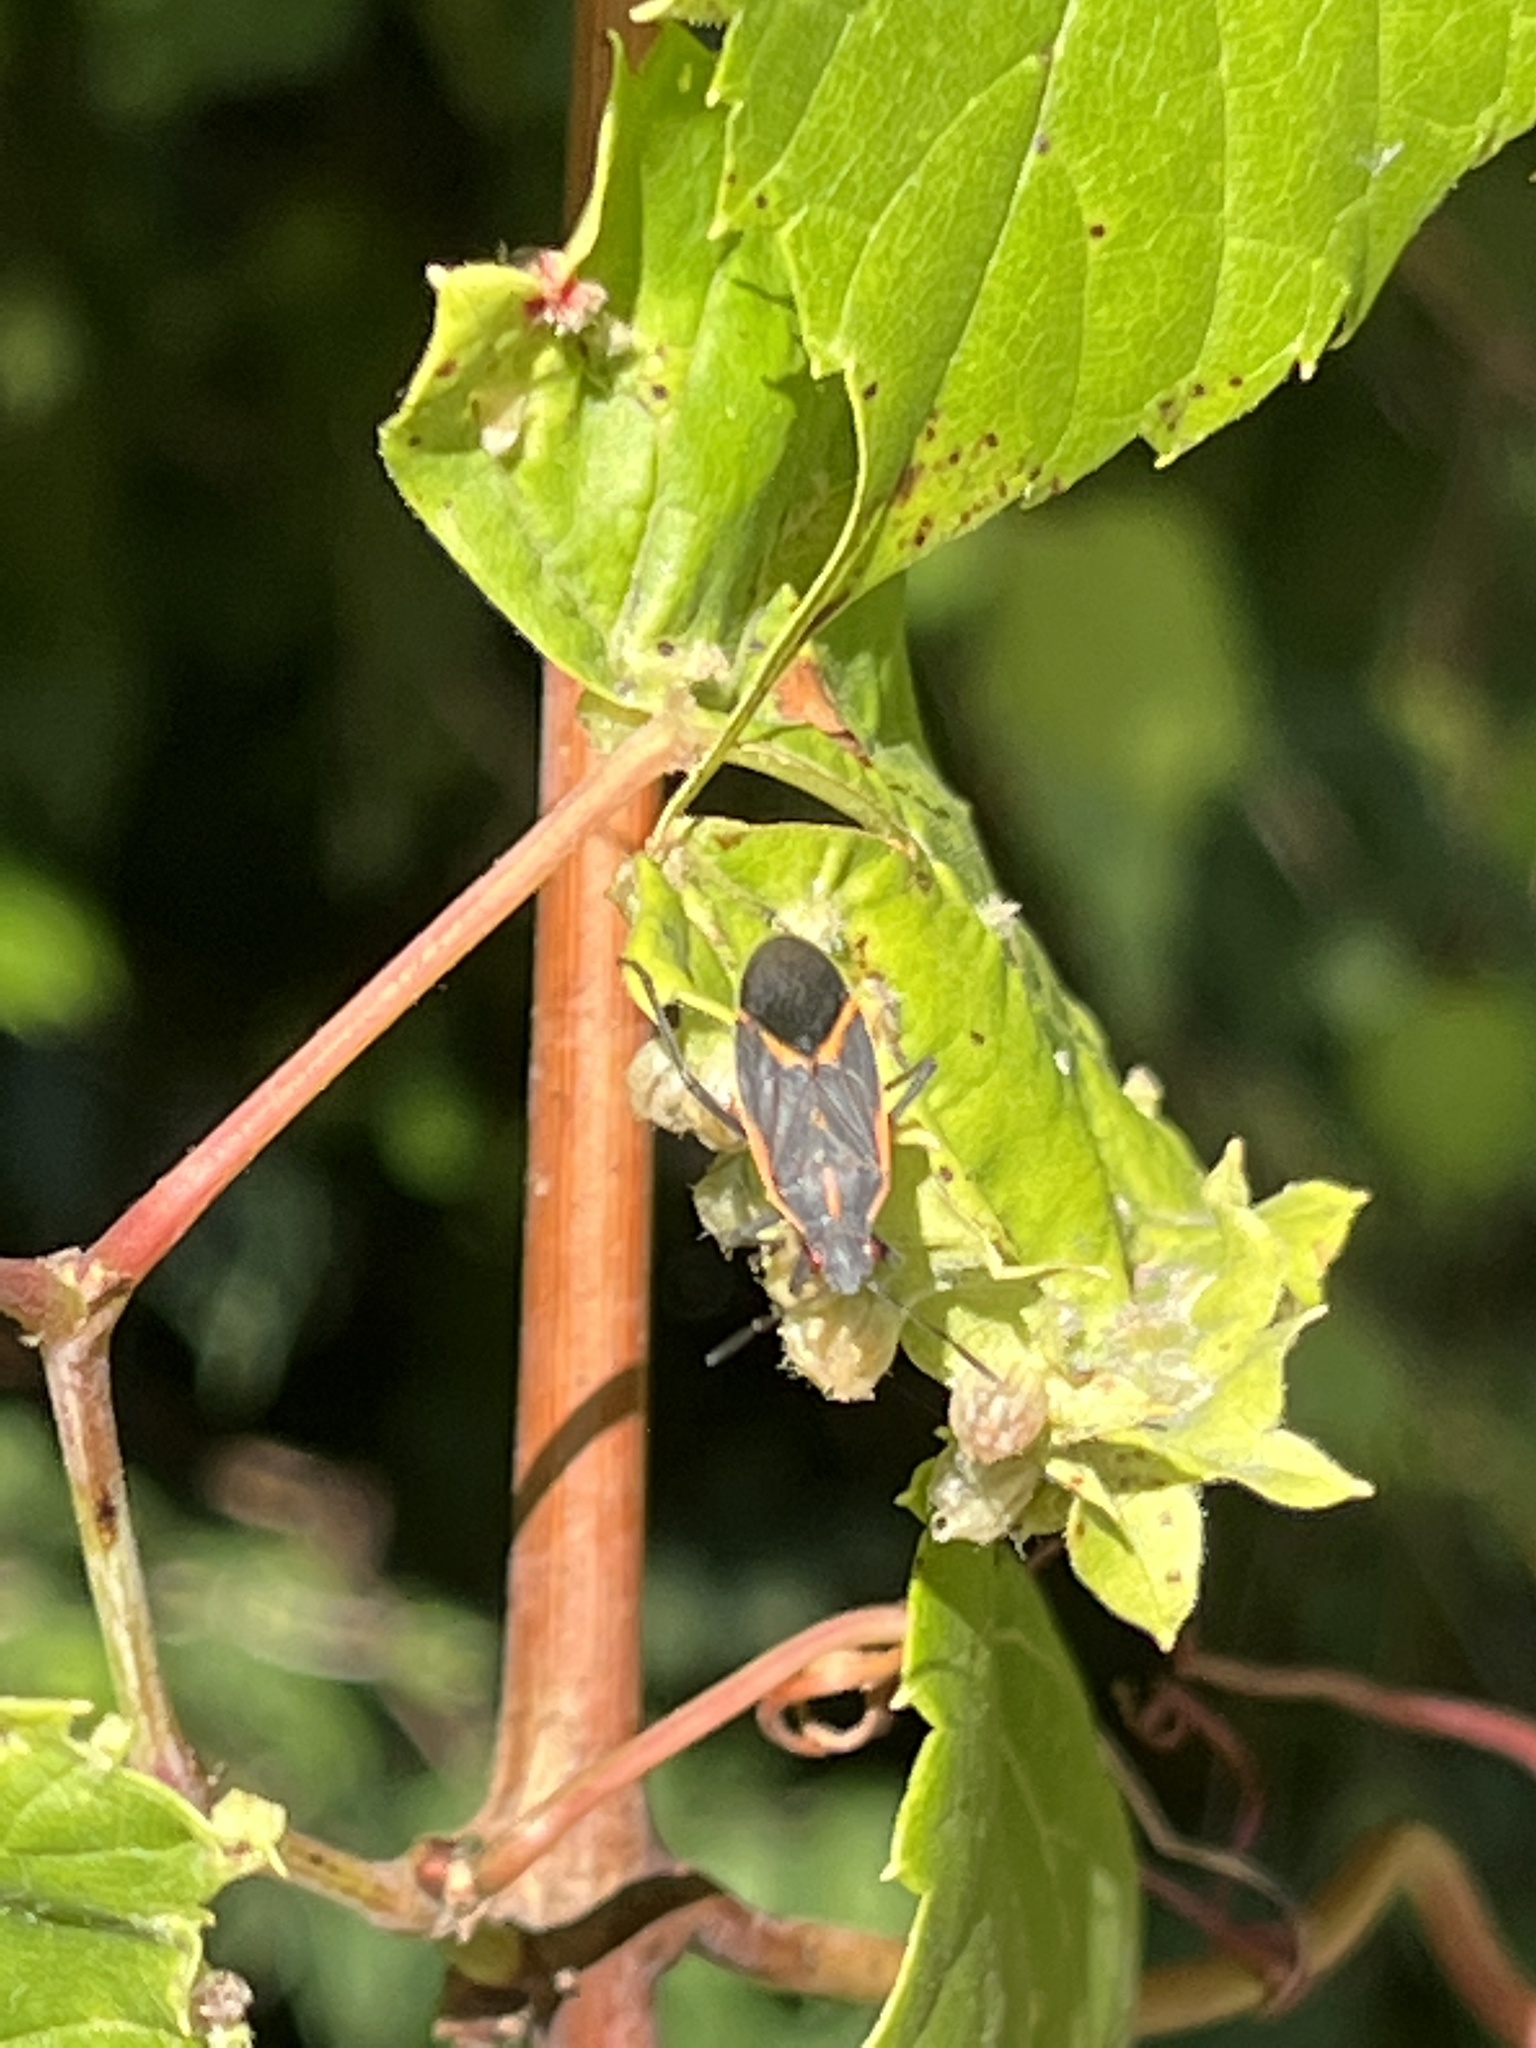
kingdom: Animalia
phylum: Arthropoda
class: Insecta
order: Hemiptera
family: Rhopalidae
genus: Boisea
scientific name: Boisea trivittata
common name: Boxelder bug
